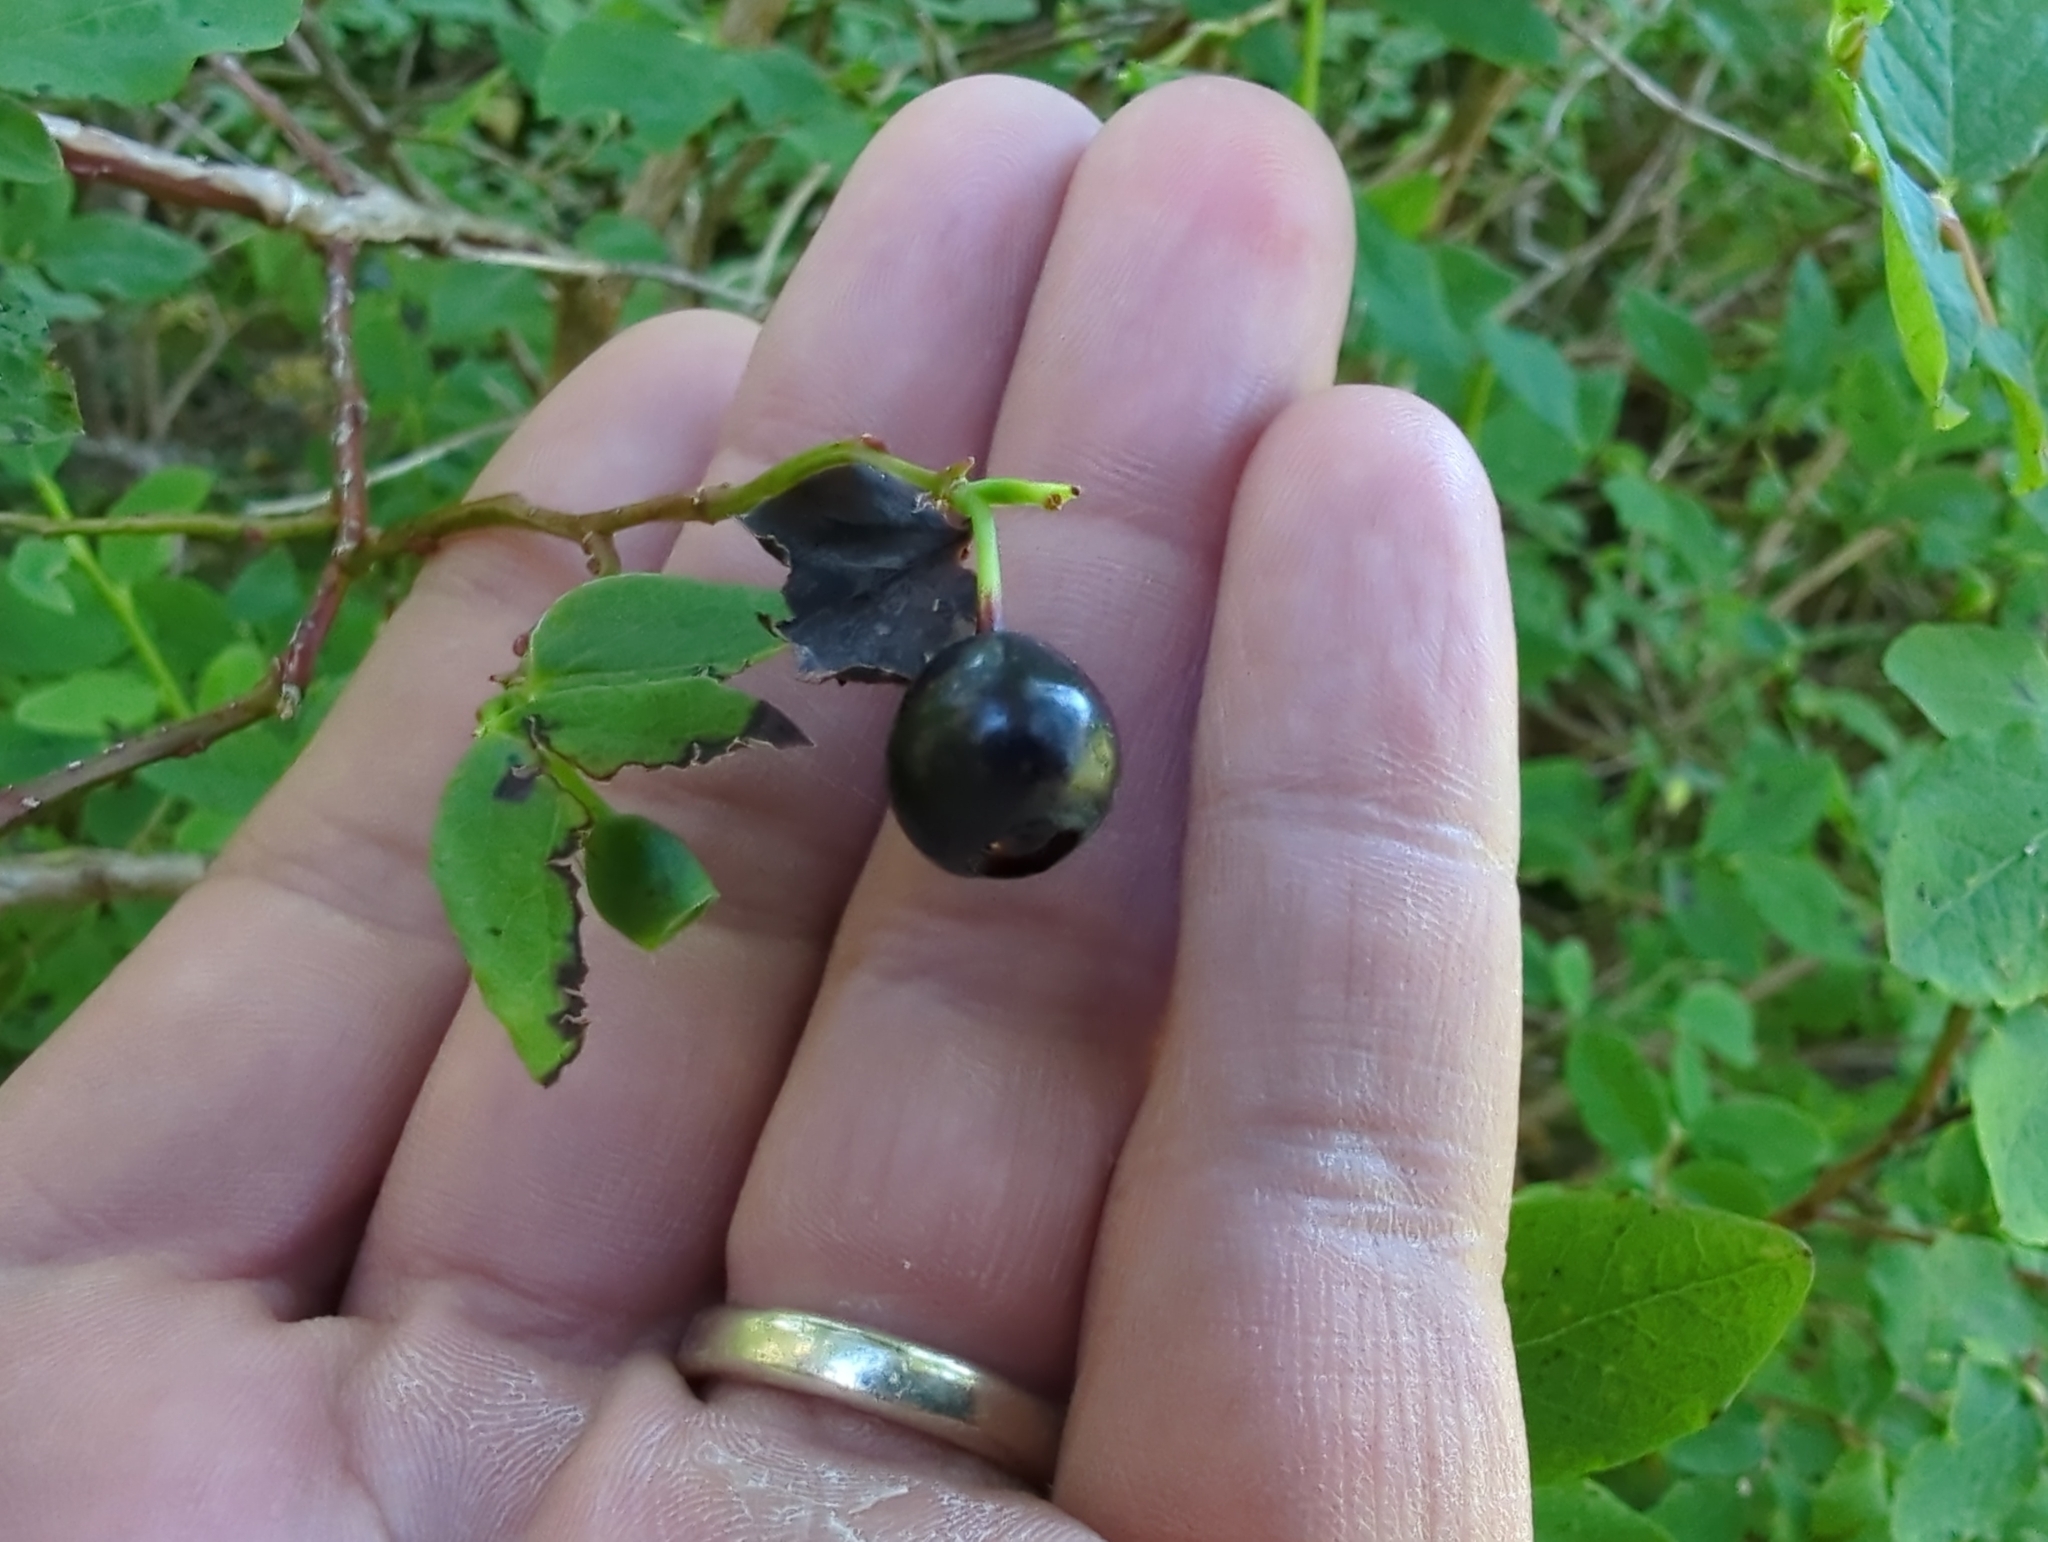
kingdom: Plantae
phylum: Tracheophyta
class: Magnoliopsida
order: Ericales
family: Ericaceae
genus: Vaccinium
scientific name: Vaccinium ovalifolium
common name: Early blueberry
